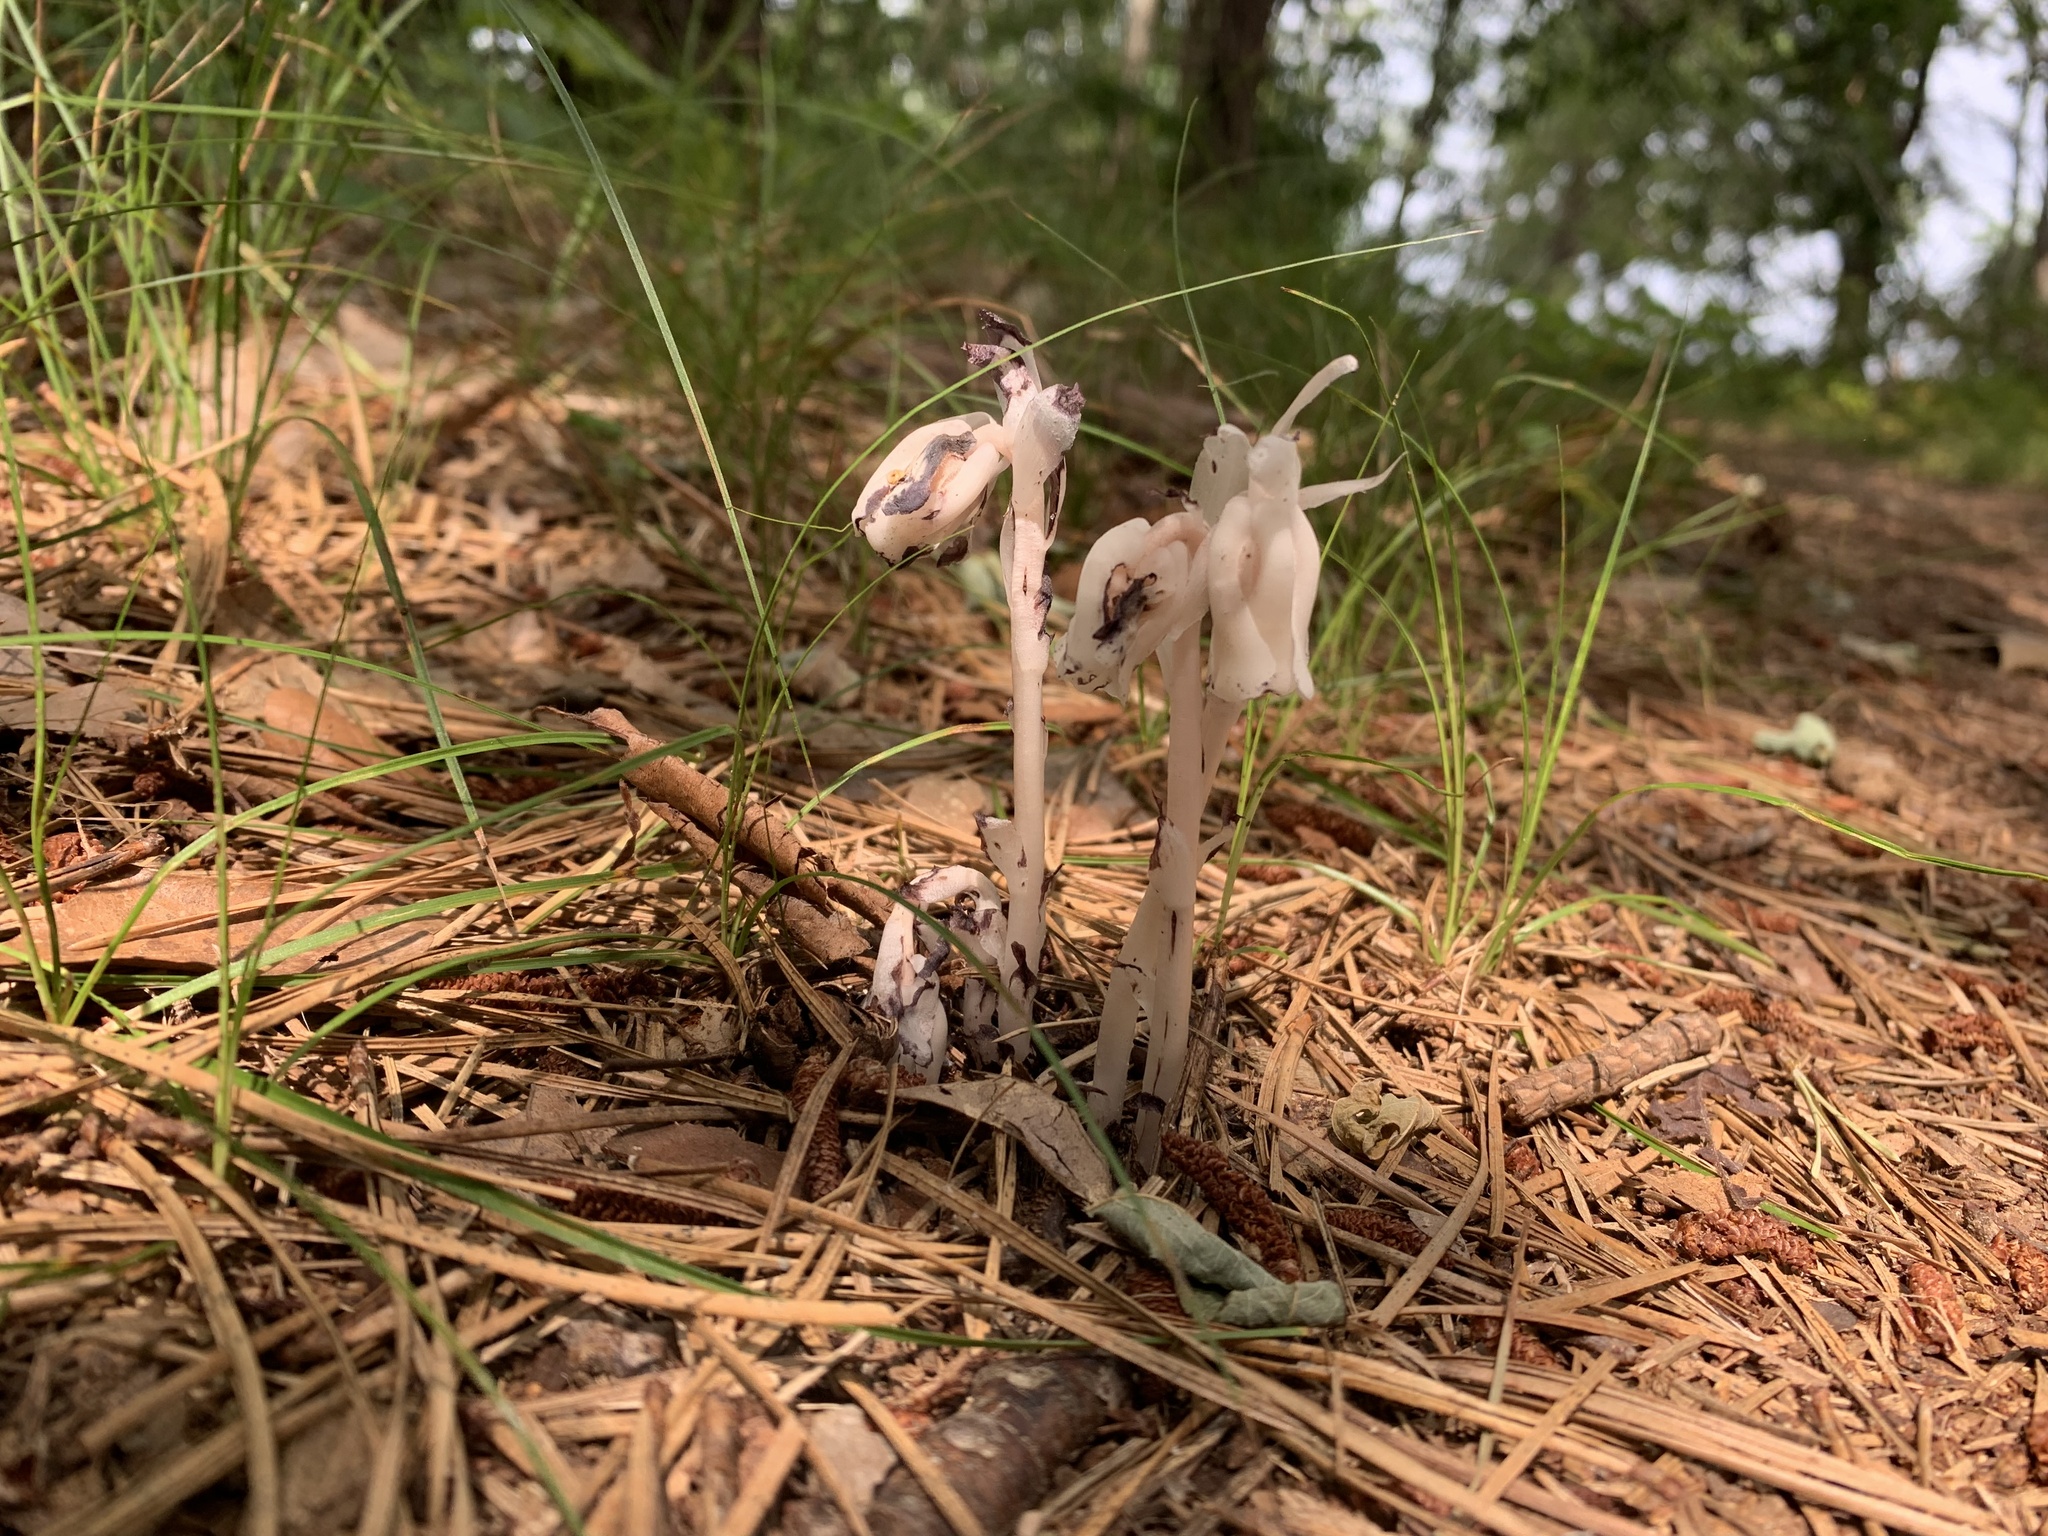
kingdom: Plantae
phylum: Tracheophyta
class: Magnoliopsida
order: Ericales
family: Ericaceae
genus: Monotropa
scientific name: Monotropa uniflora
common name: Convulsion root
